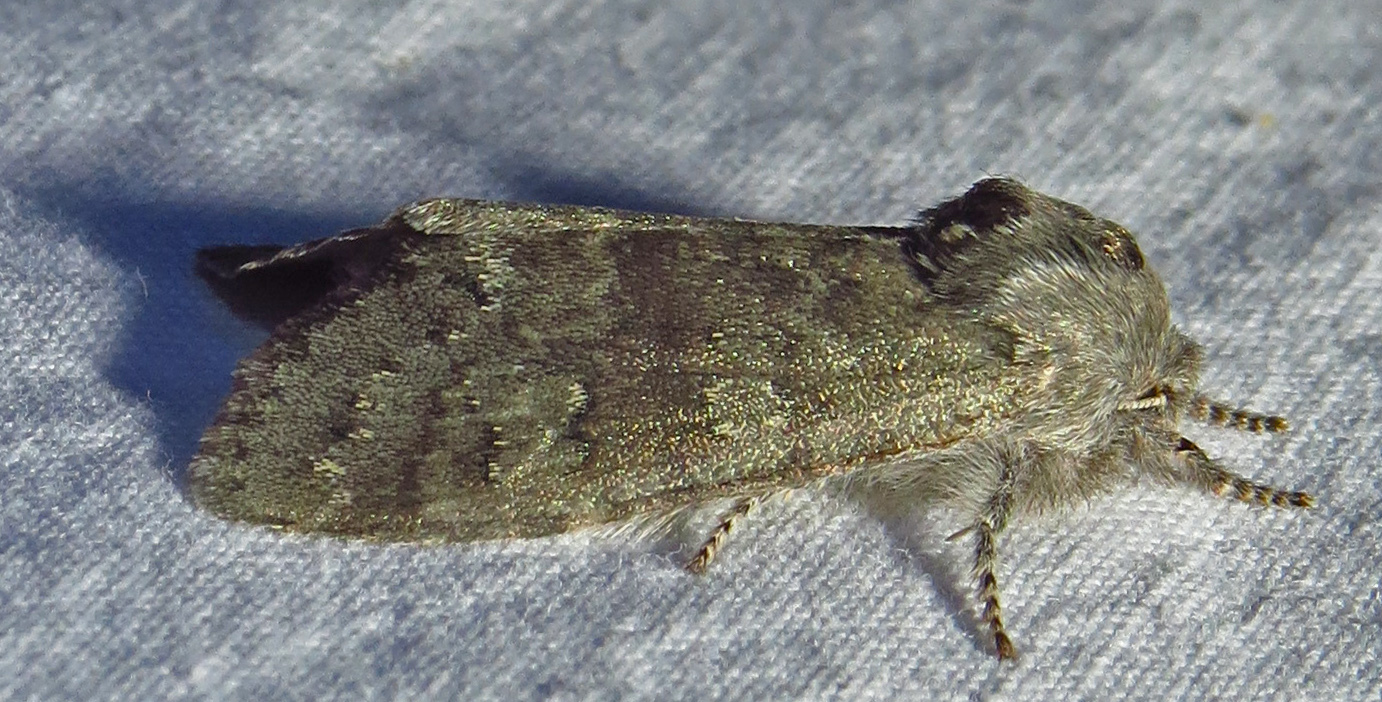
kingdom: Animalia
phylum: Arthropoda
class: Insecta
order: Lepidoptera
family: Noctuidae
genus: Psaphida
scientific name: Psaphida rolandi
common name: Roland's sallow
